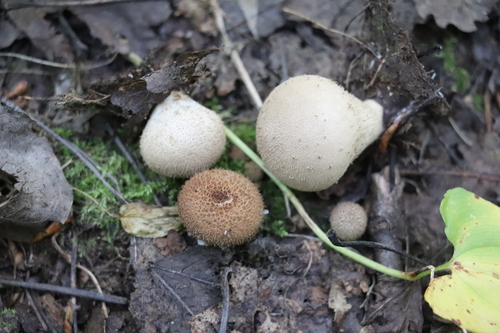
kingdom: Fungi
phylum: Basidiomycota
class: Agaricomycetes
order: Agaricales
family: Lycoperdaceae
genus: Apioperdon
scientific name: Apioperdon pyriforme
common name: Pear-shaped puffball
